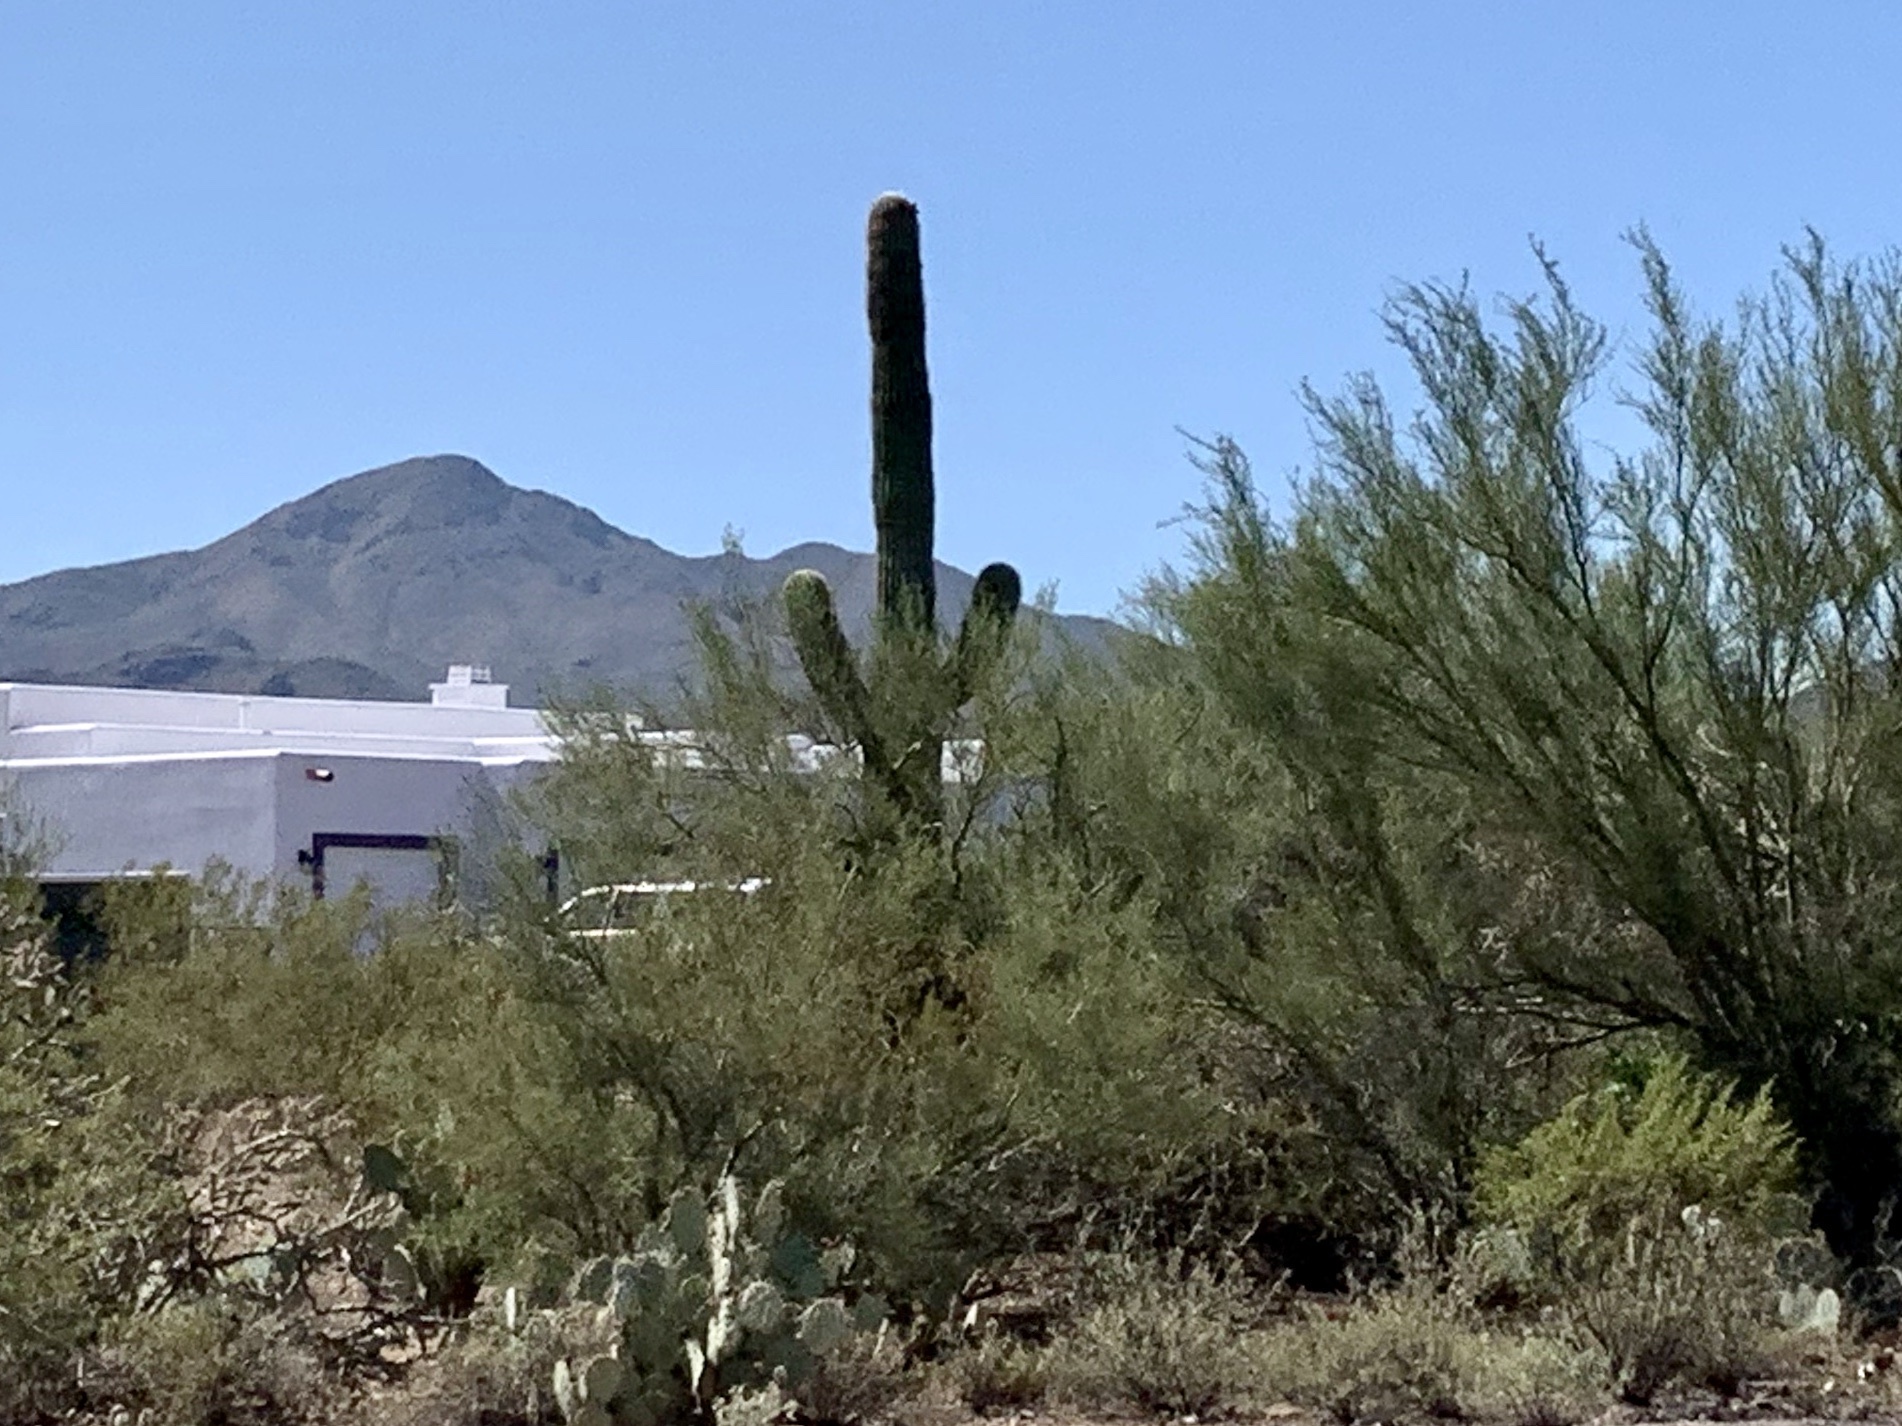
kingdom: Plantae
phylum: Tracheophyta
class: Magnoliopsida
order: Caryophyllales
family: Cactaceae
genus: Carnegiea
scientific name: Carnegiea gigantea
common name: Saguaro
